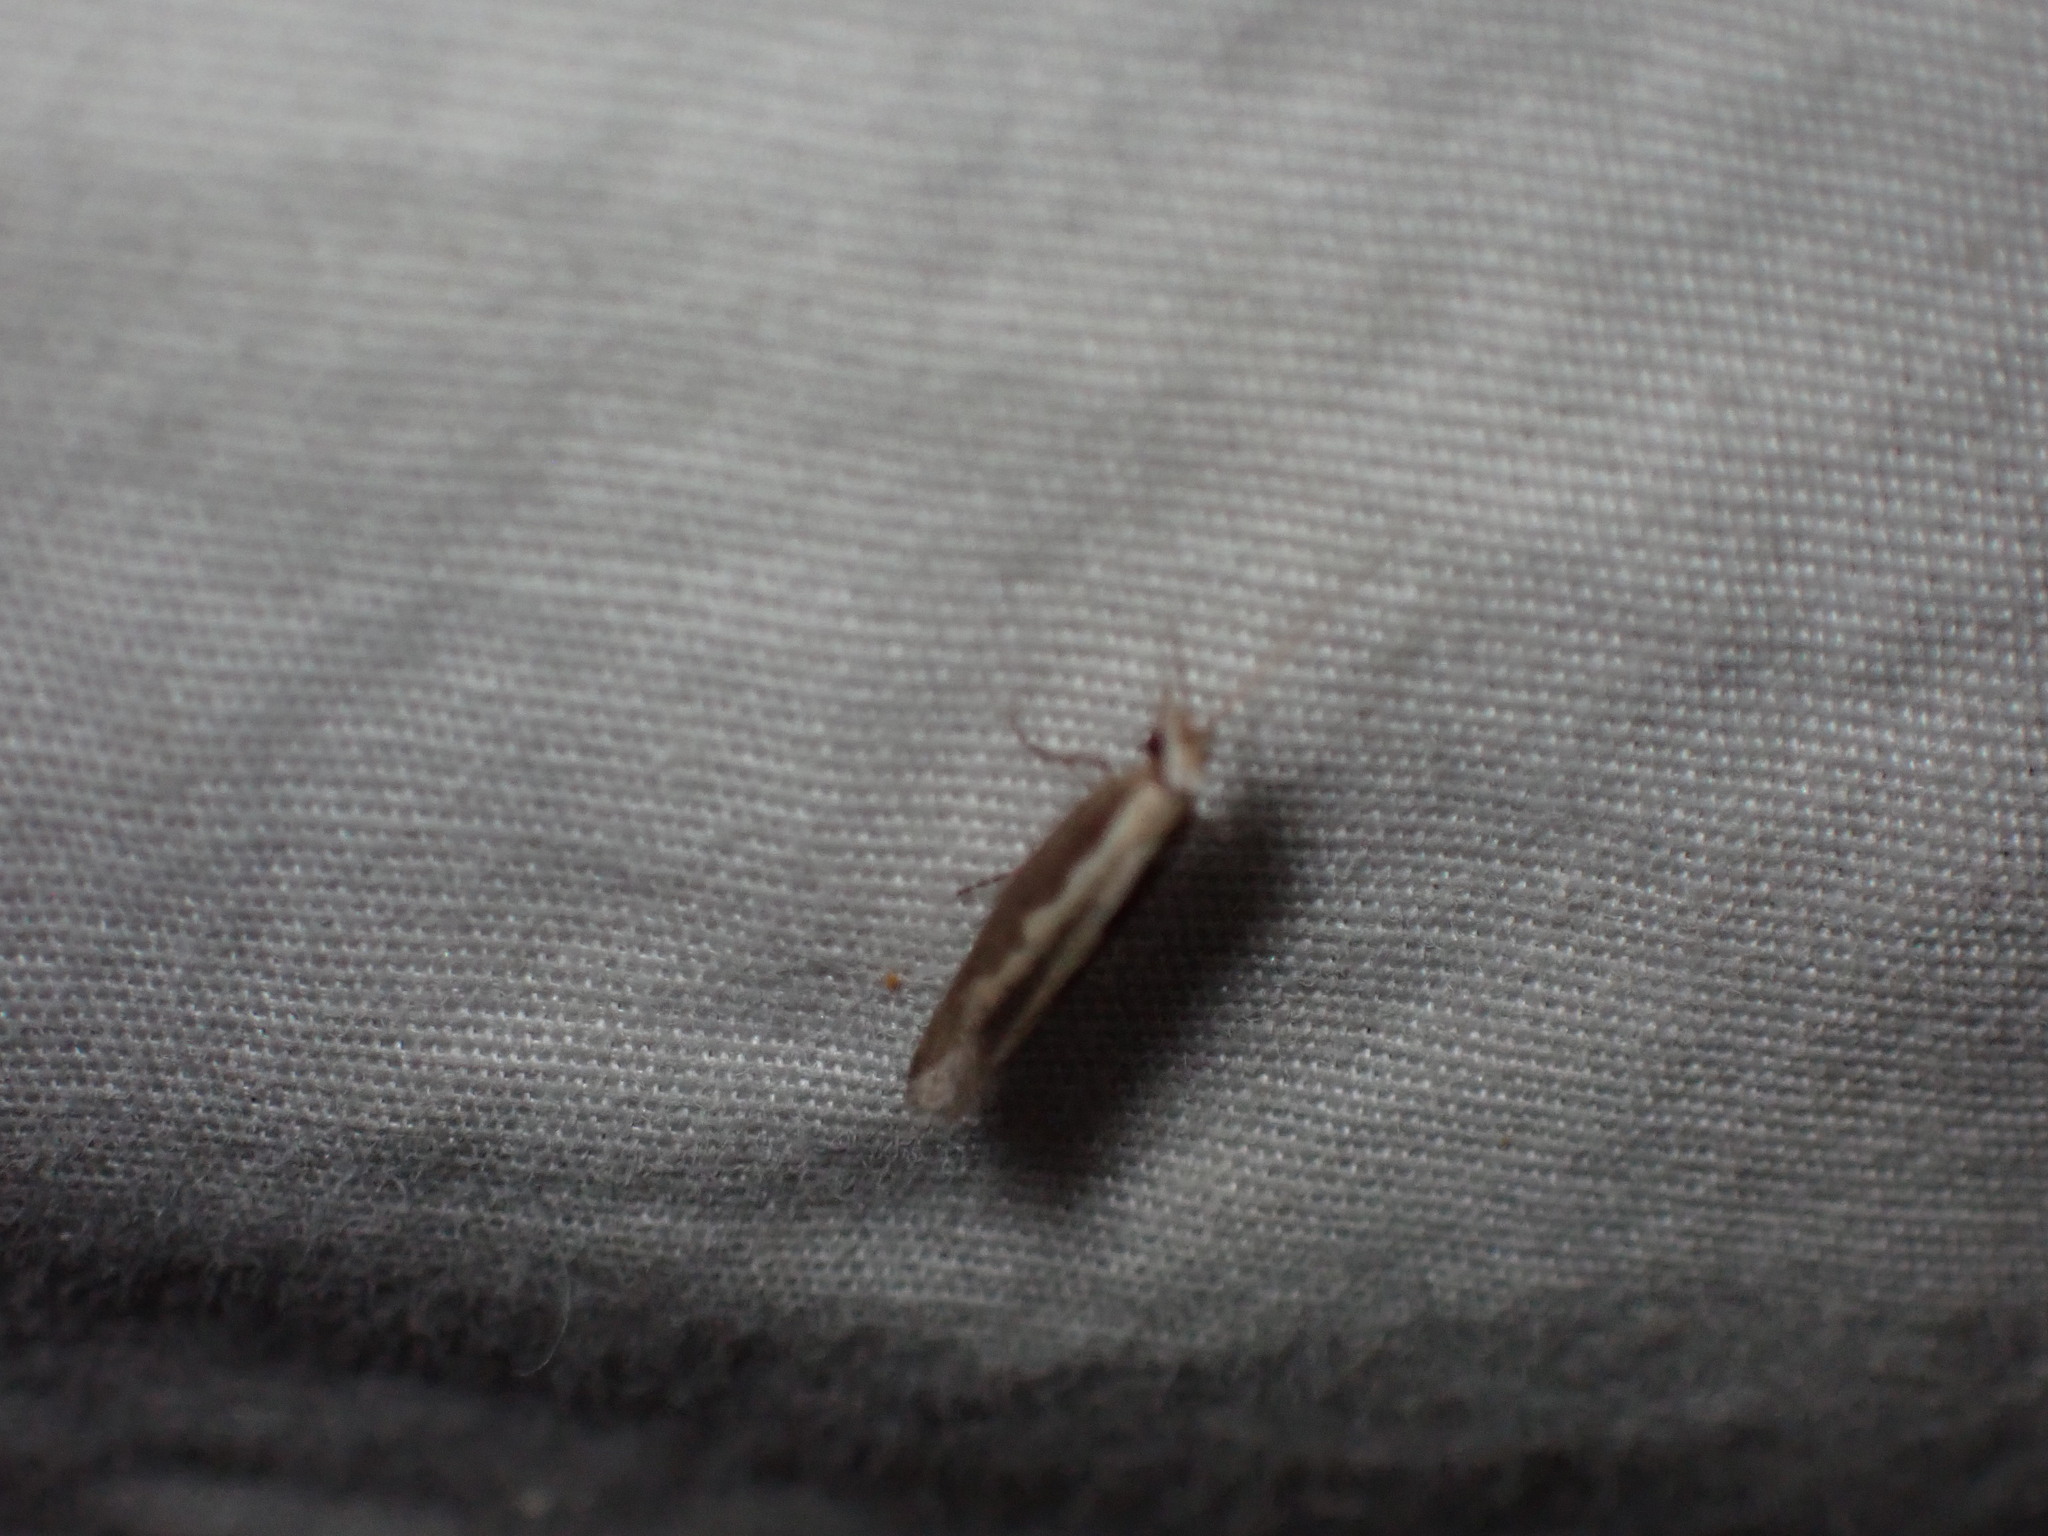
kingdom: Animalia
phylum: Arthropoda
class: Insecta
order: Lepidoptera
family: Plutellidae
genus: Plutella
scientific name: Plutella xylostella
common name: Diamond-back moth
